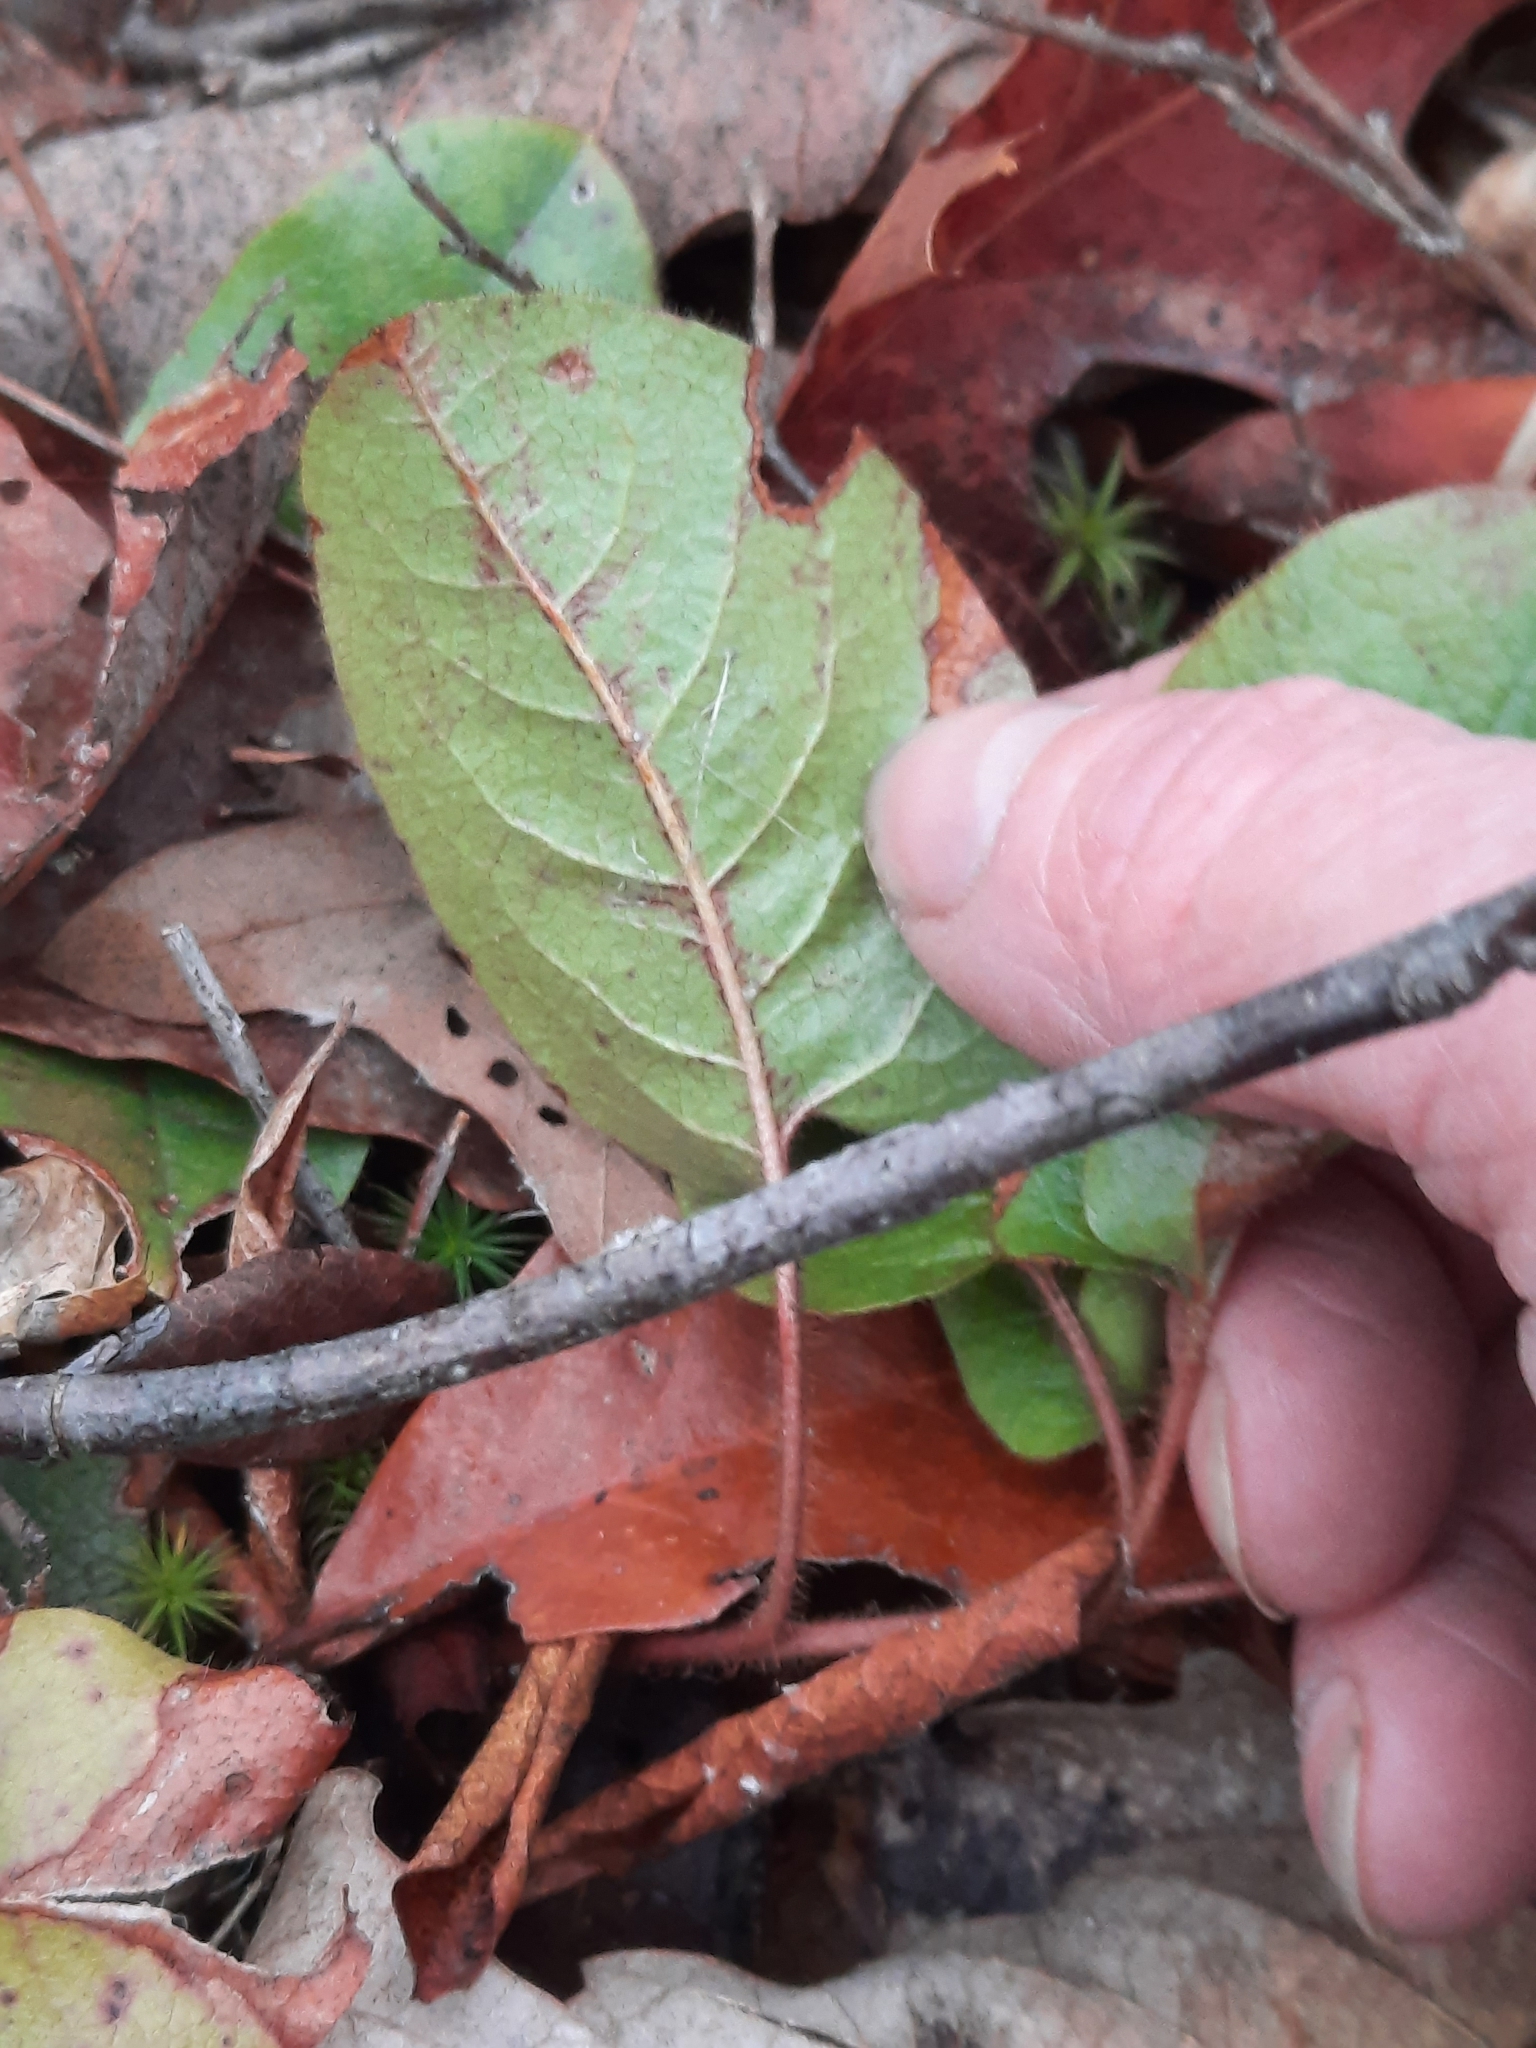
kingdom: Plantae
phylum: Tracheophyta
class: Magnoliopsida
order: Ericales
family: Ericaceae
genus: Epigaea
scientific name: Epigaea repens
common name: Gravelroot
